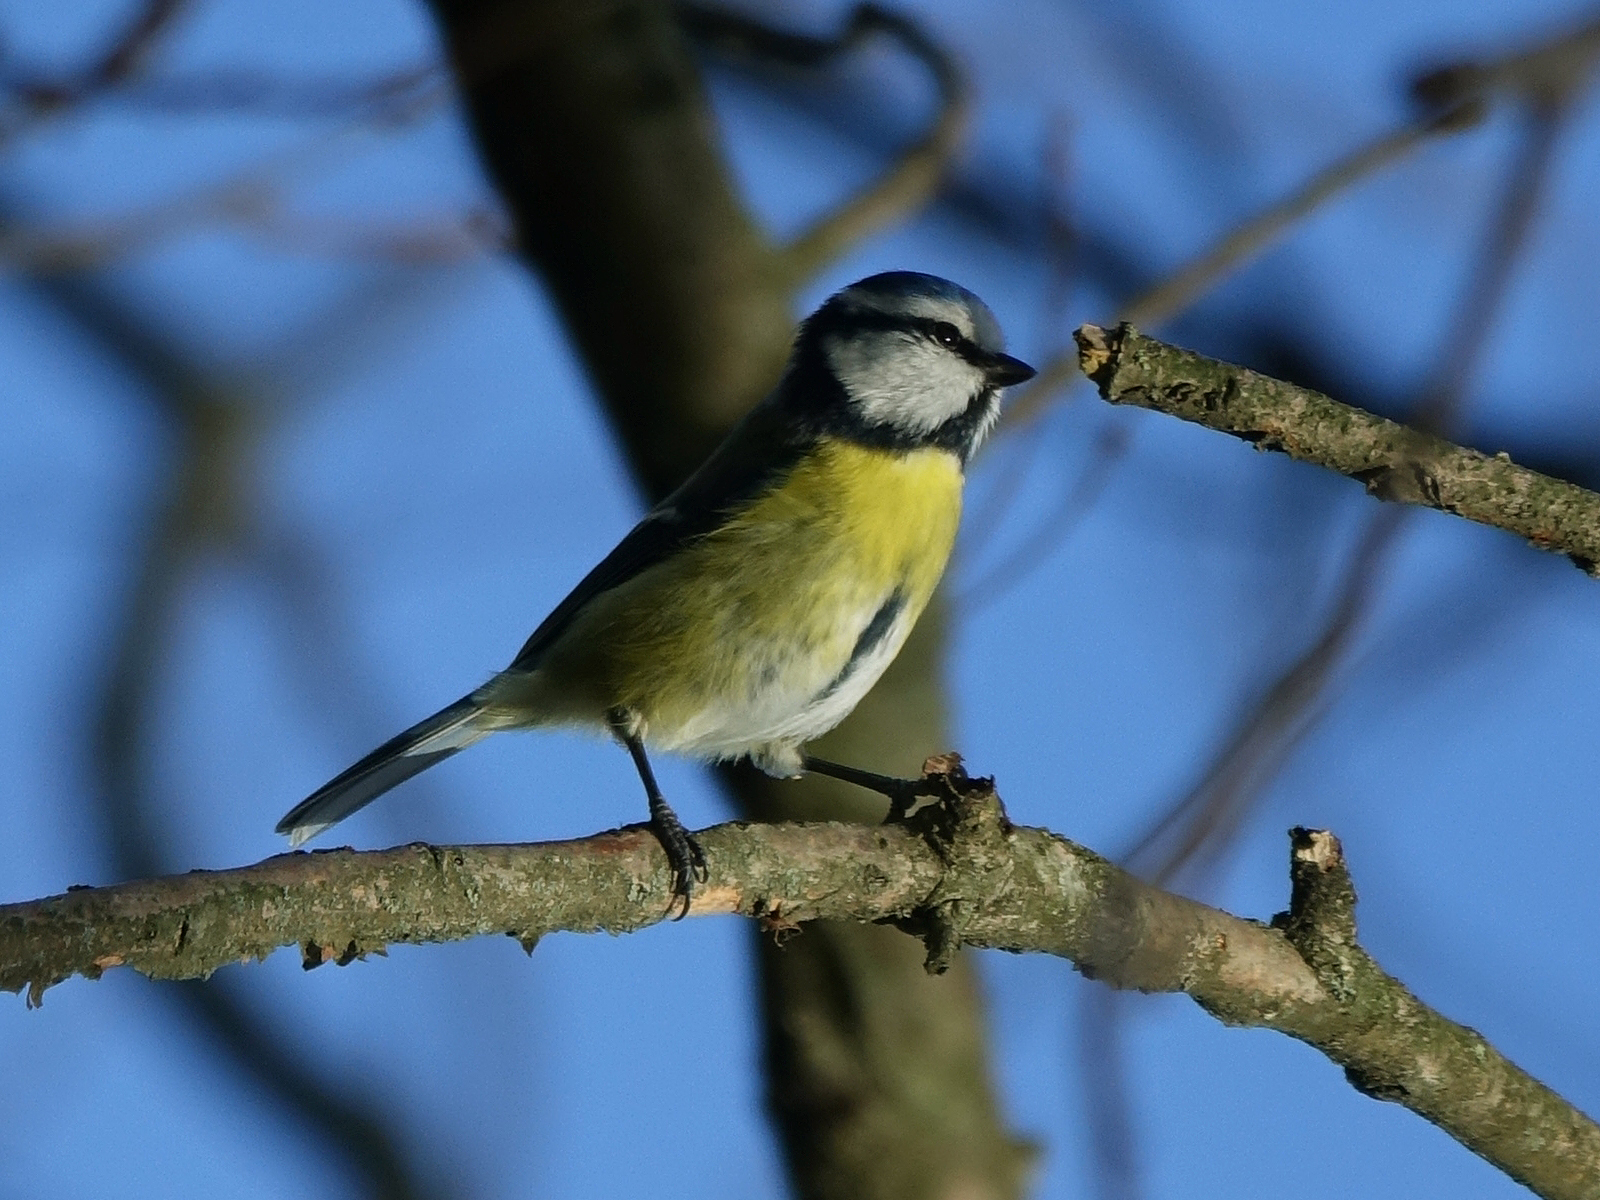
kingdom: Animalia
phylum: Chordata
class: Aves
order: Passeriformes
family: Paridae
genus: Cyanistes
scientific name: Cyanistes caeruleus
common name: Eurasian blue tit
